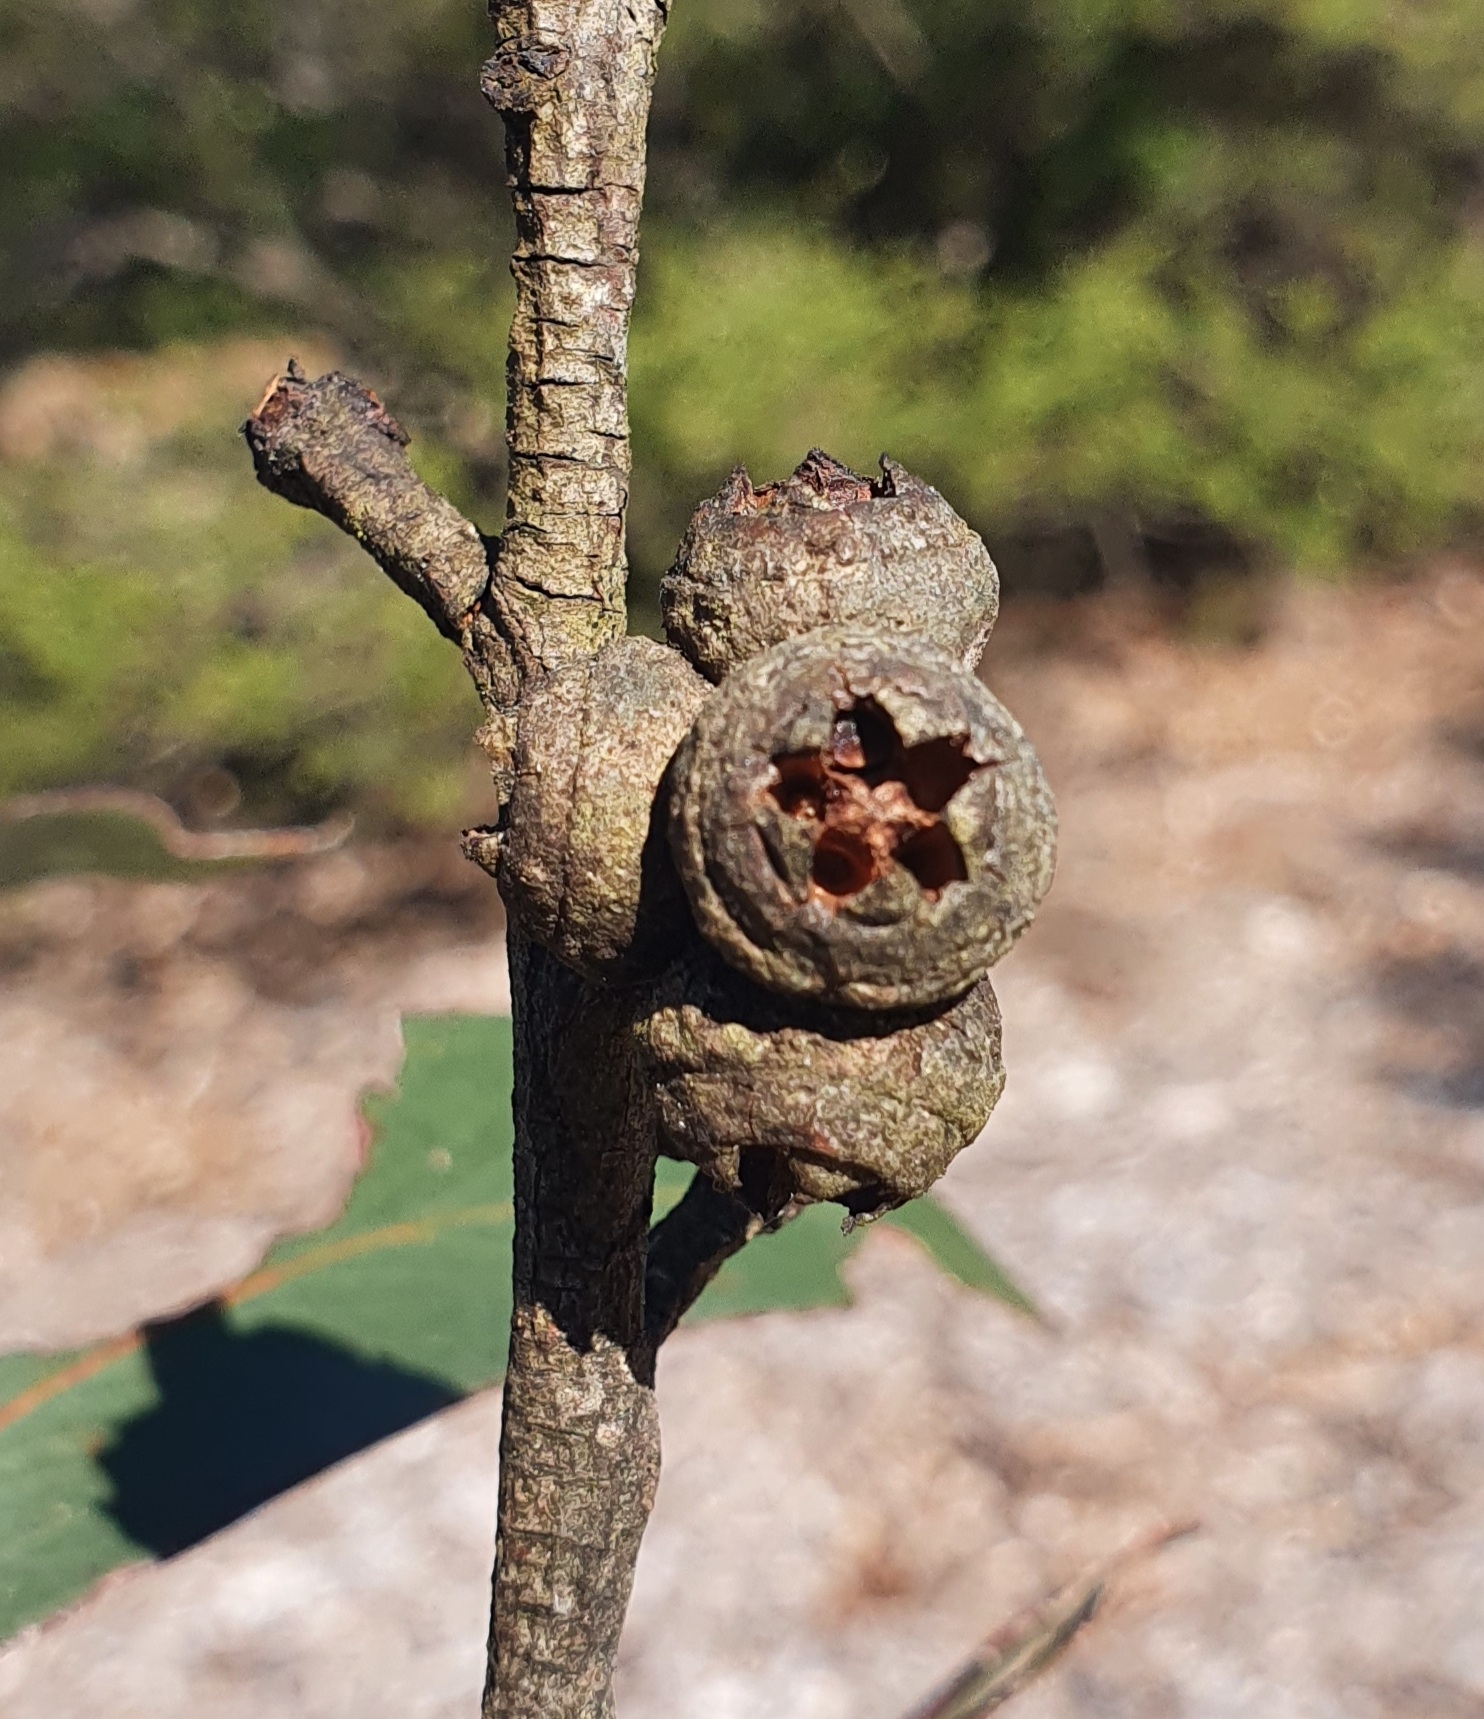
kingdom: Plantae
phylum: Tracheophyta
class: Magnoliopsida
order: Myrtales
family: Myrtaceae
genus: Eucalyptus
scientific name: Eucalyptus blaxlandii
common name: Blaxland's stringybark
